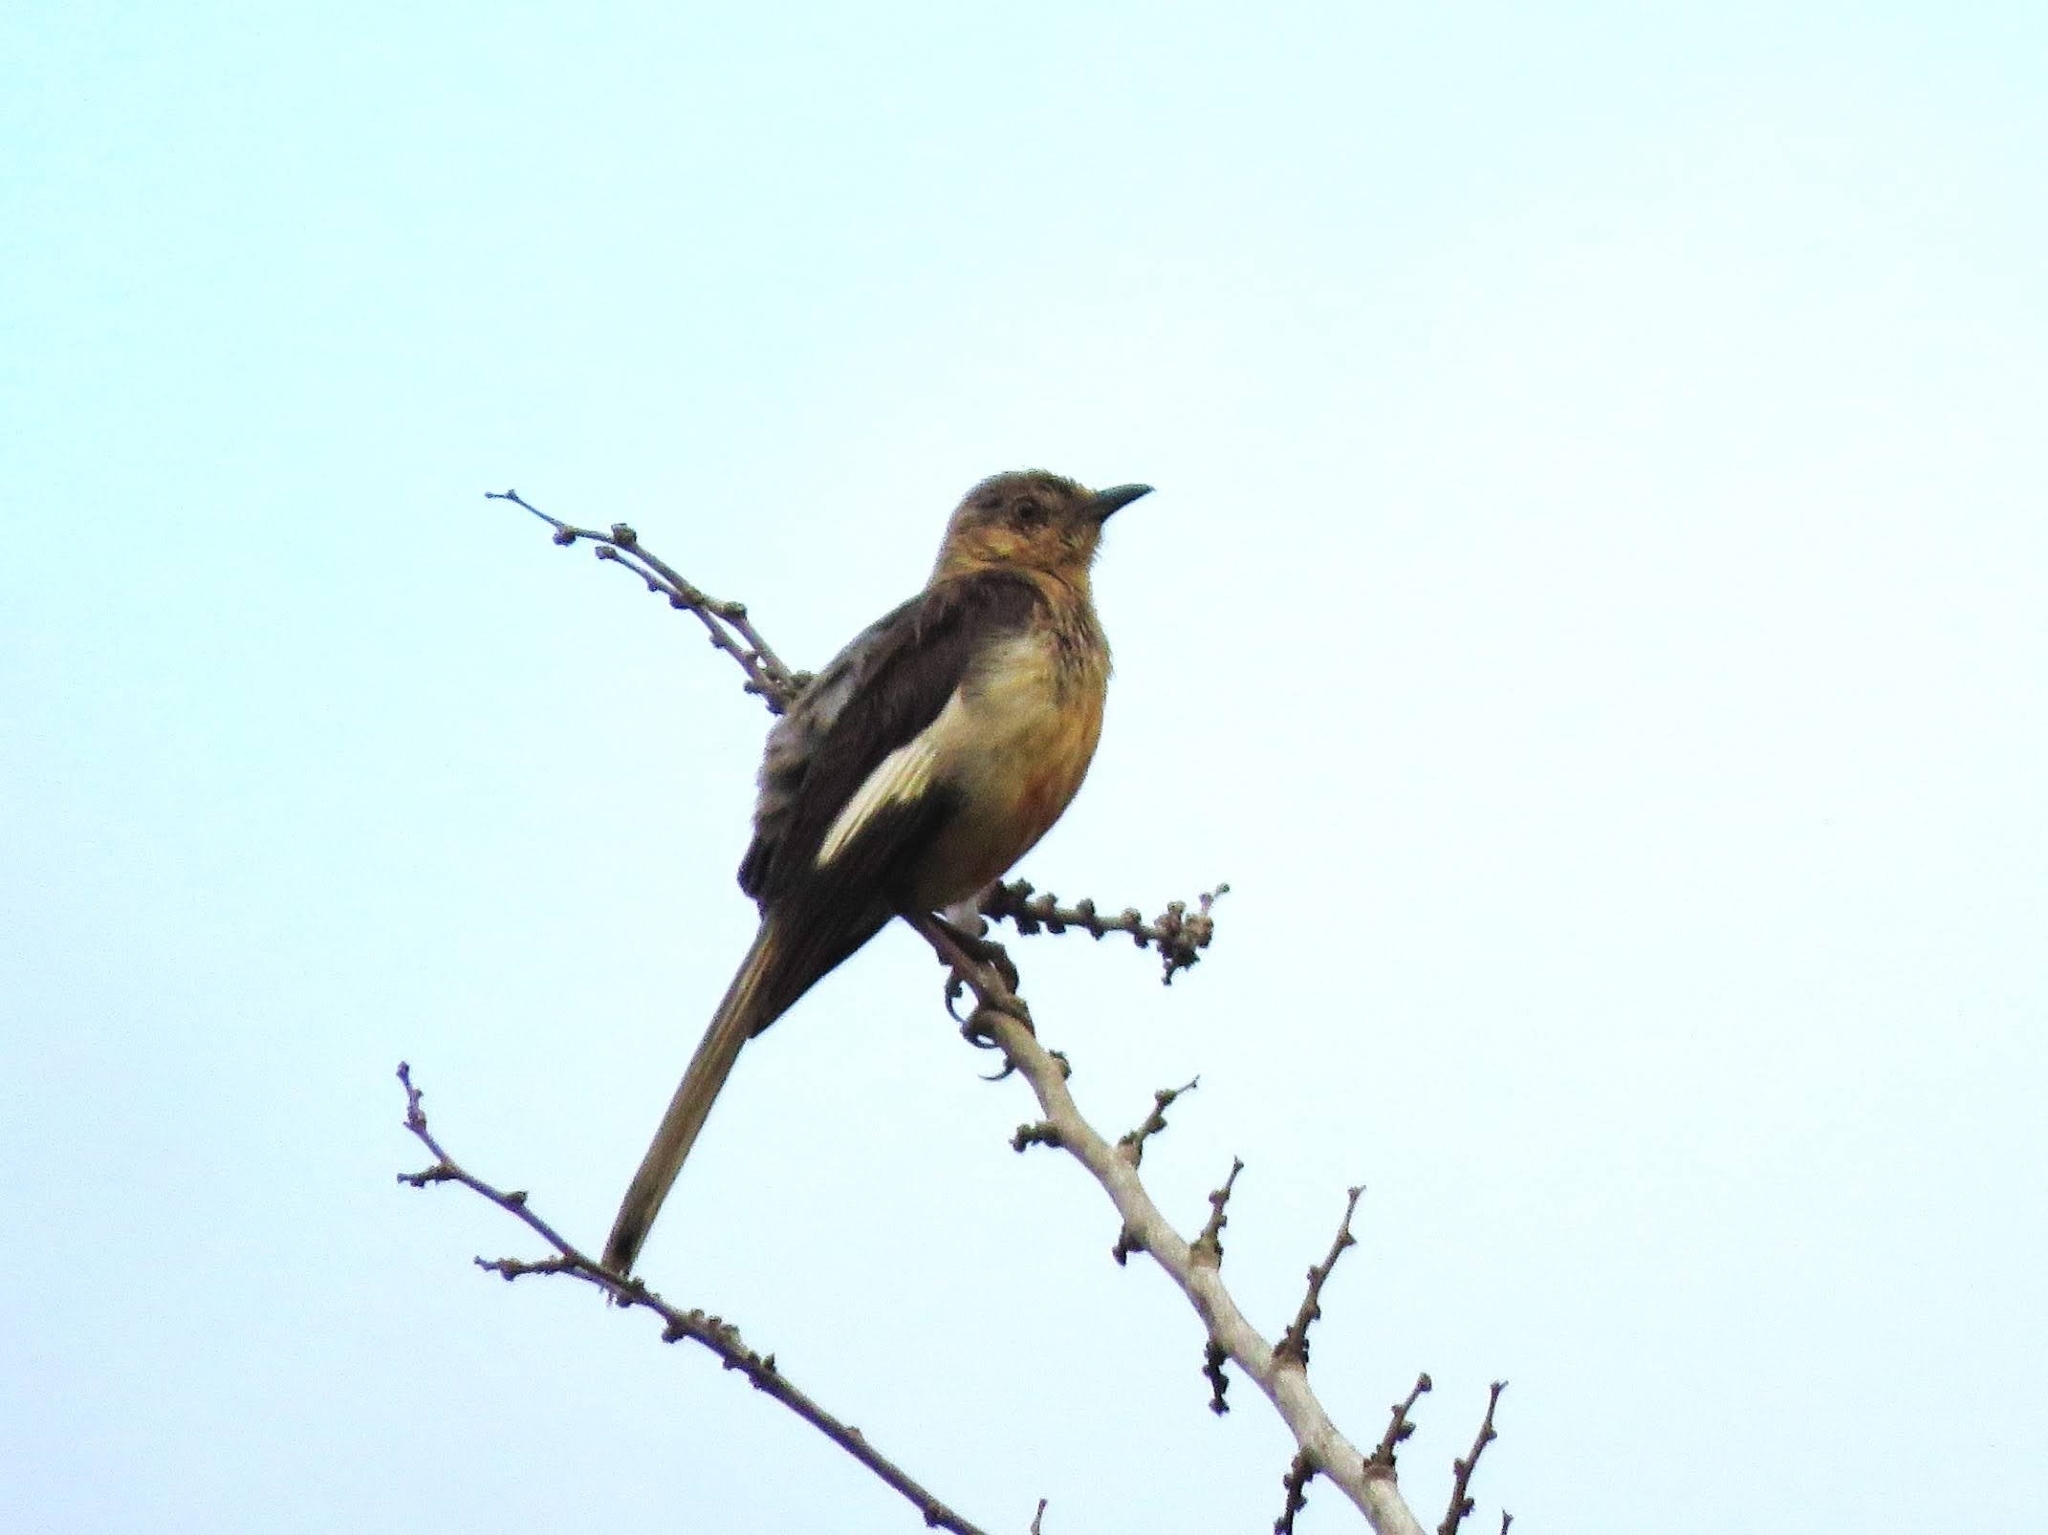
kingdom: Animalia
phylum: Chordata
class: Aves
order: Passeriformes
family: Mimidae
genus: Mimus
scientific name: Mimus polyglottos
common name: Northern mockingbird
